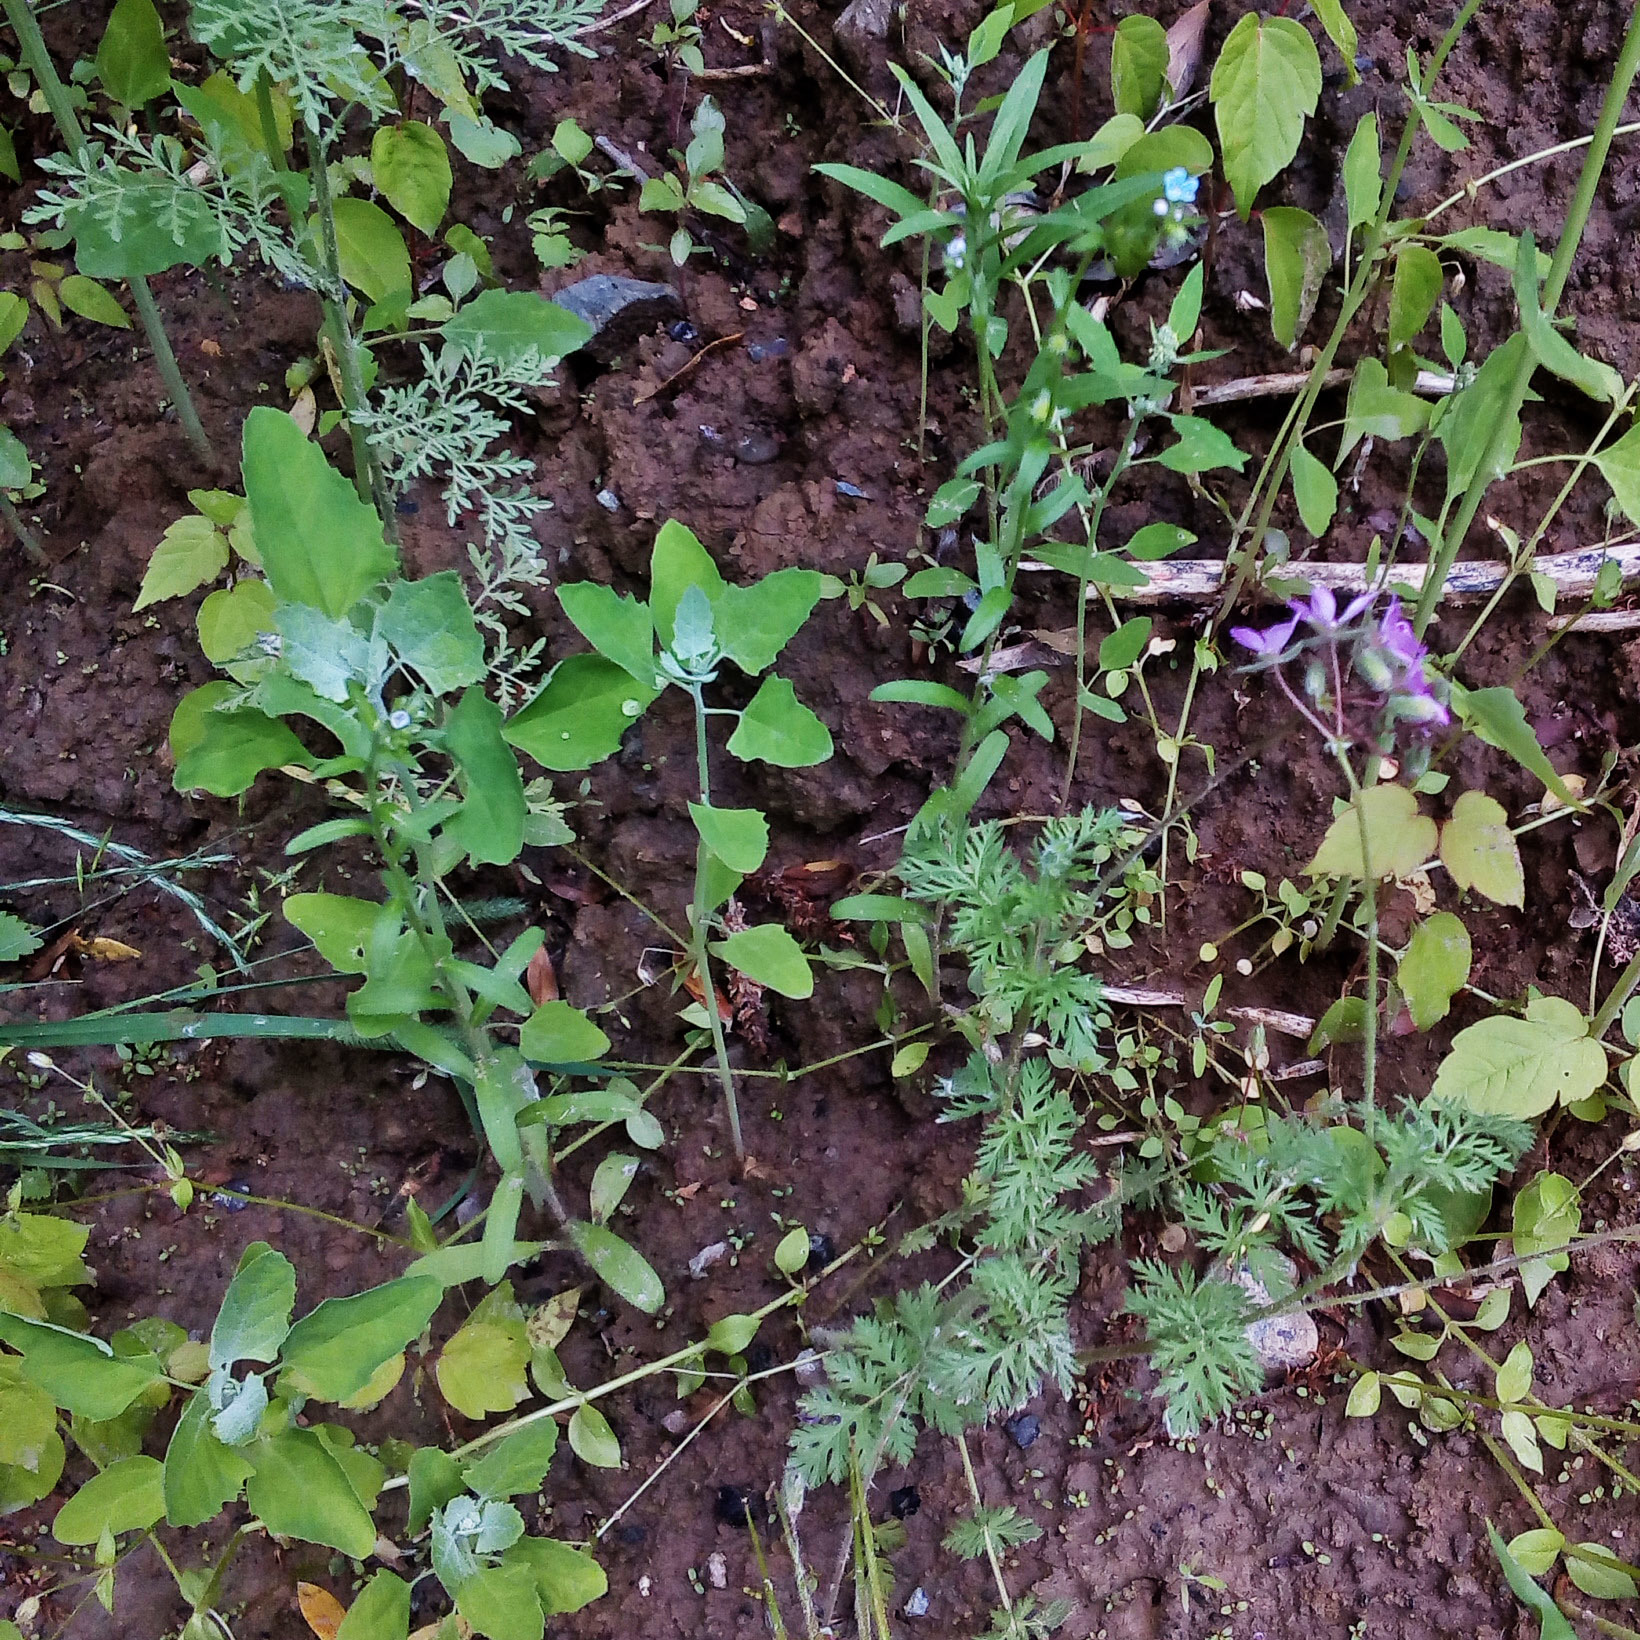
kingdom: Plantae
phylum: Tracheophyta
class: Magnoliopsida
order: Geraniales
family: Geraniaceae
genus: Erodium
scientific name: Erodium cicutarium
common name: Common stork's-bill
